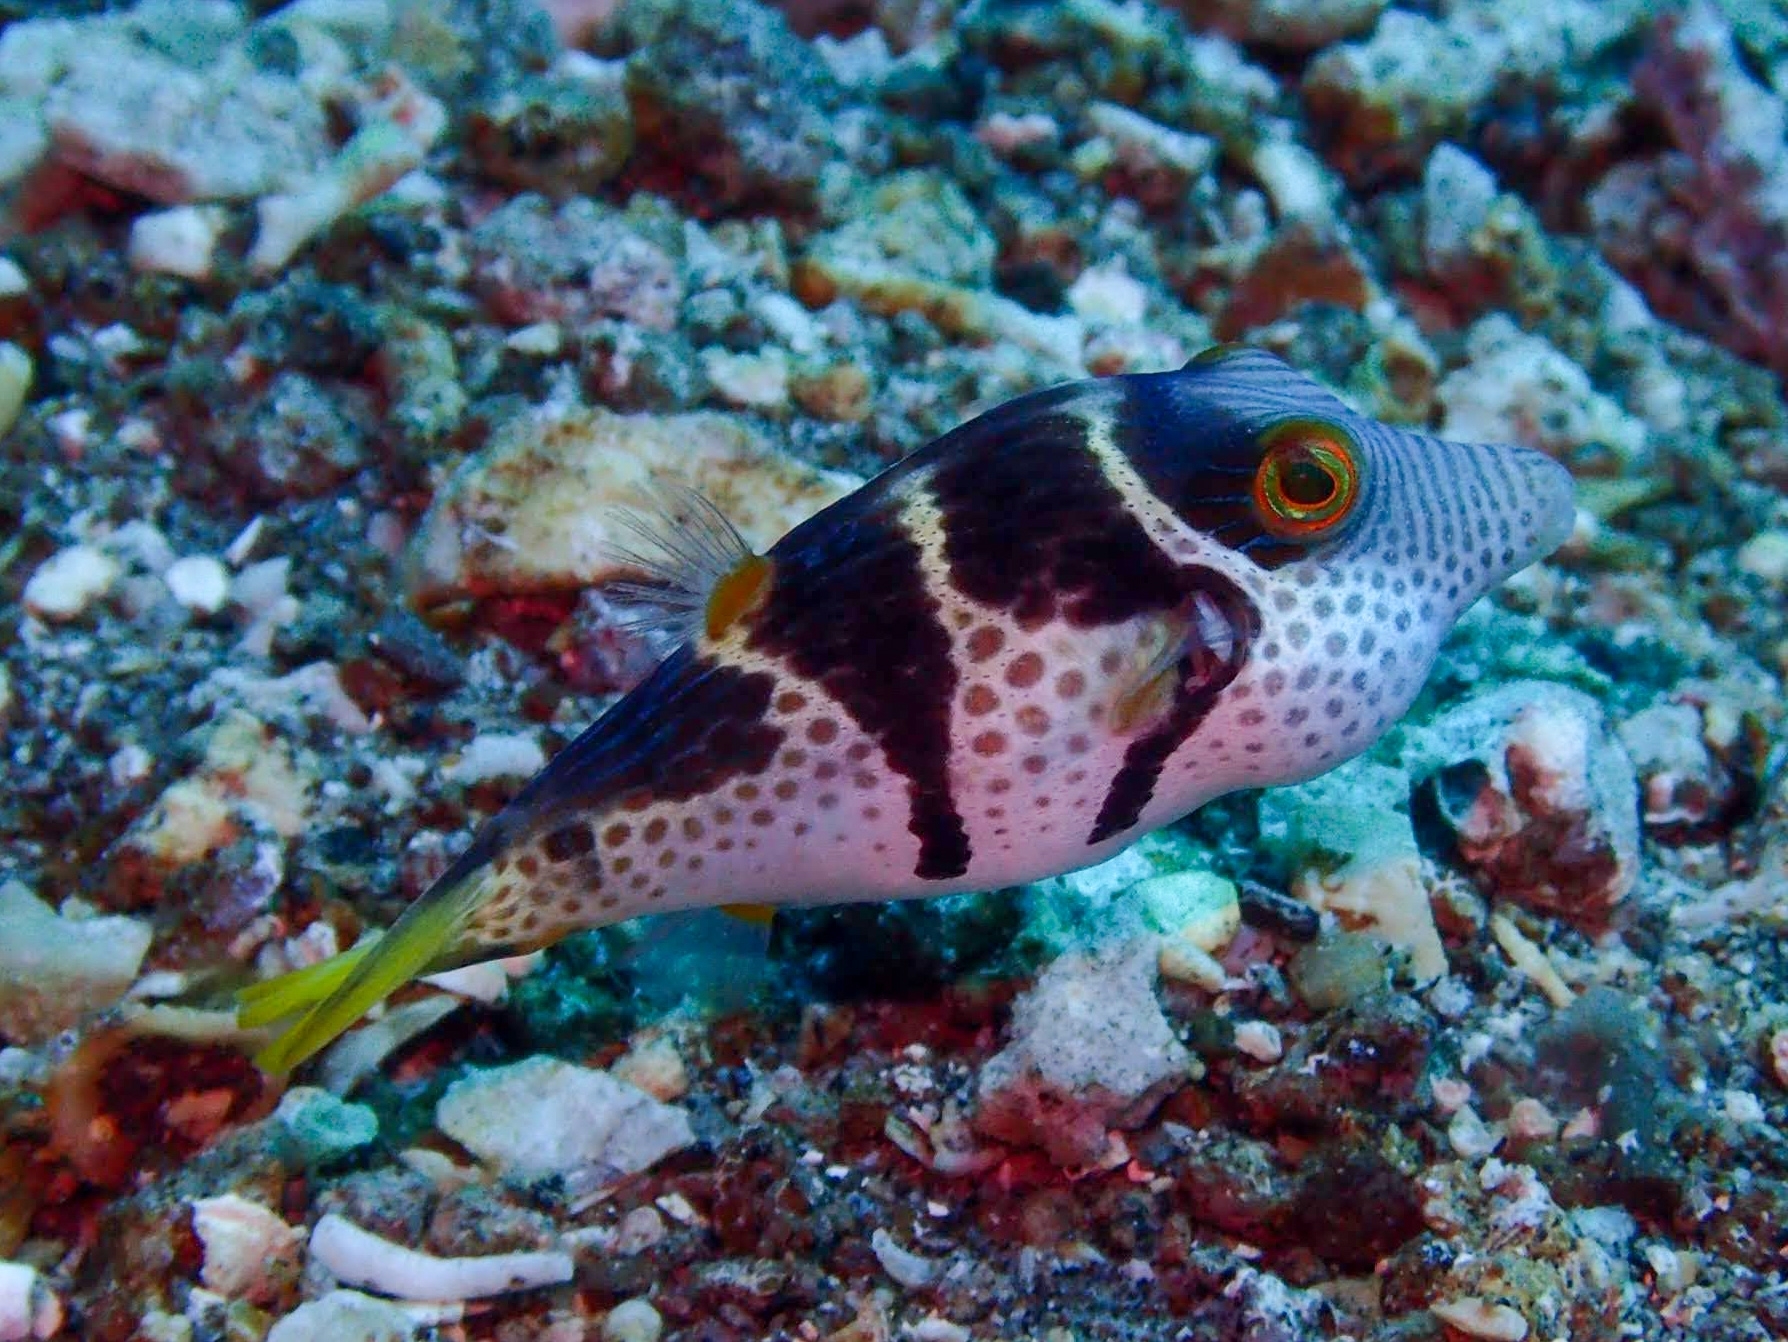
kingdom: Animalia
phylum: Chordata
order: Tetraodontiformes
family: Tetraodontidae
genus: Canthigaster
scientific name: Canthigaster valentini
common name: Banded toby
